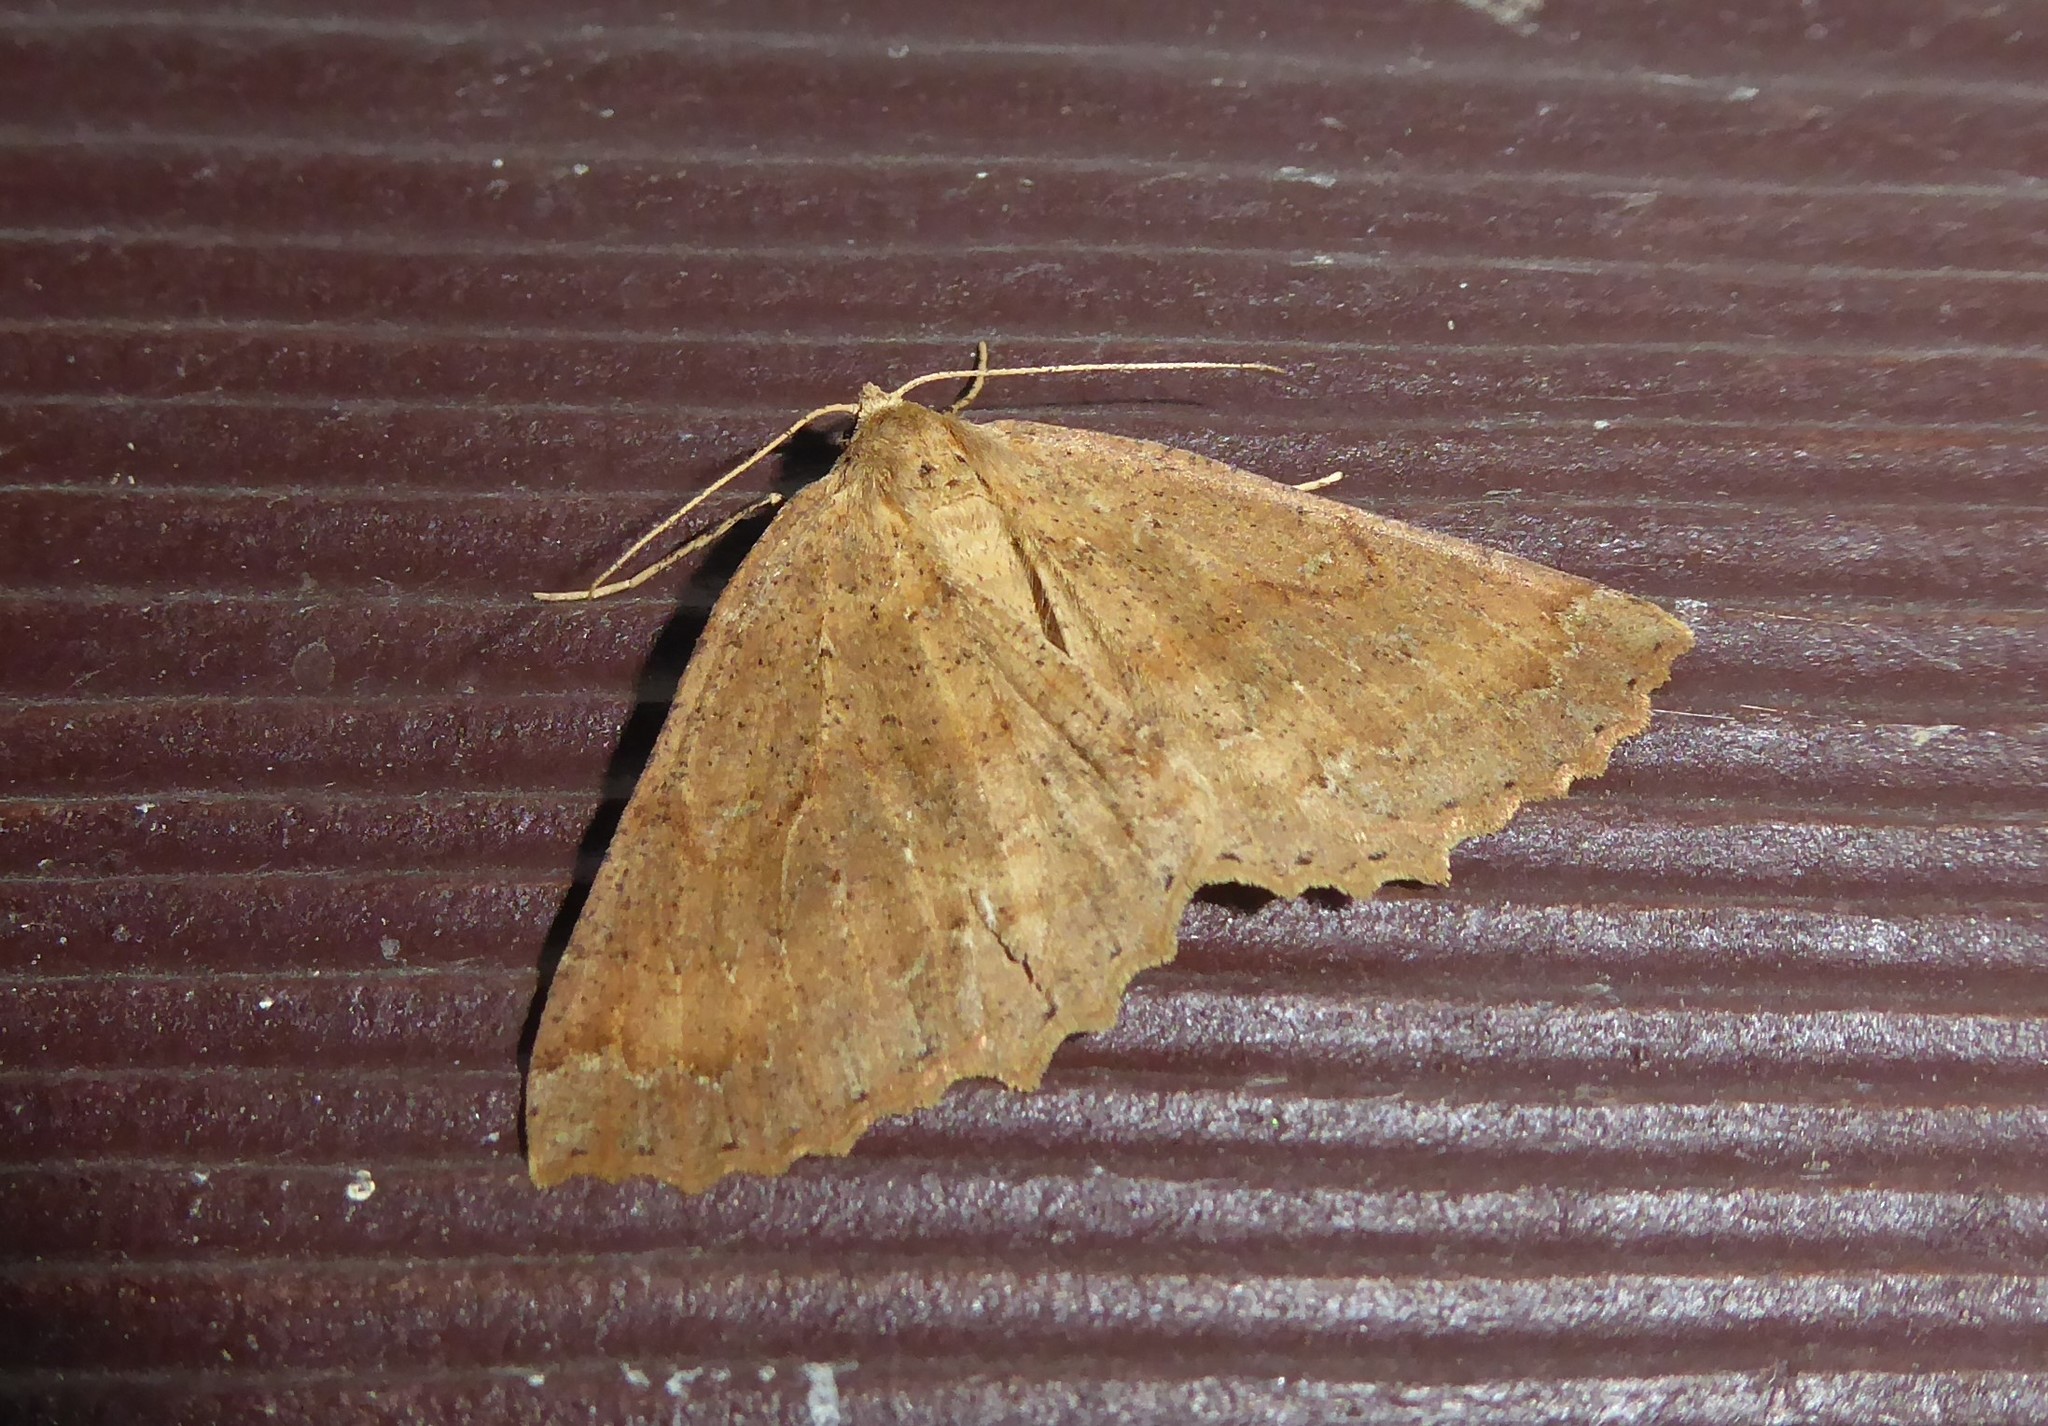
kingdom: Animalia
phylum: Arthropoda
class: Insecta
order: Lepidoptera
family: Geometridae
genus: Cleora
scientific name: Cleora scriptaria
